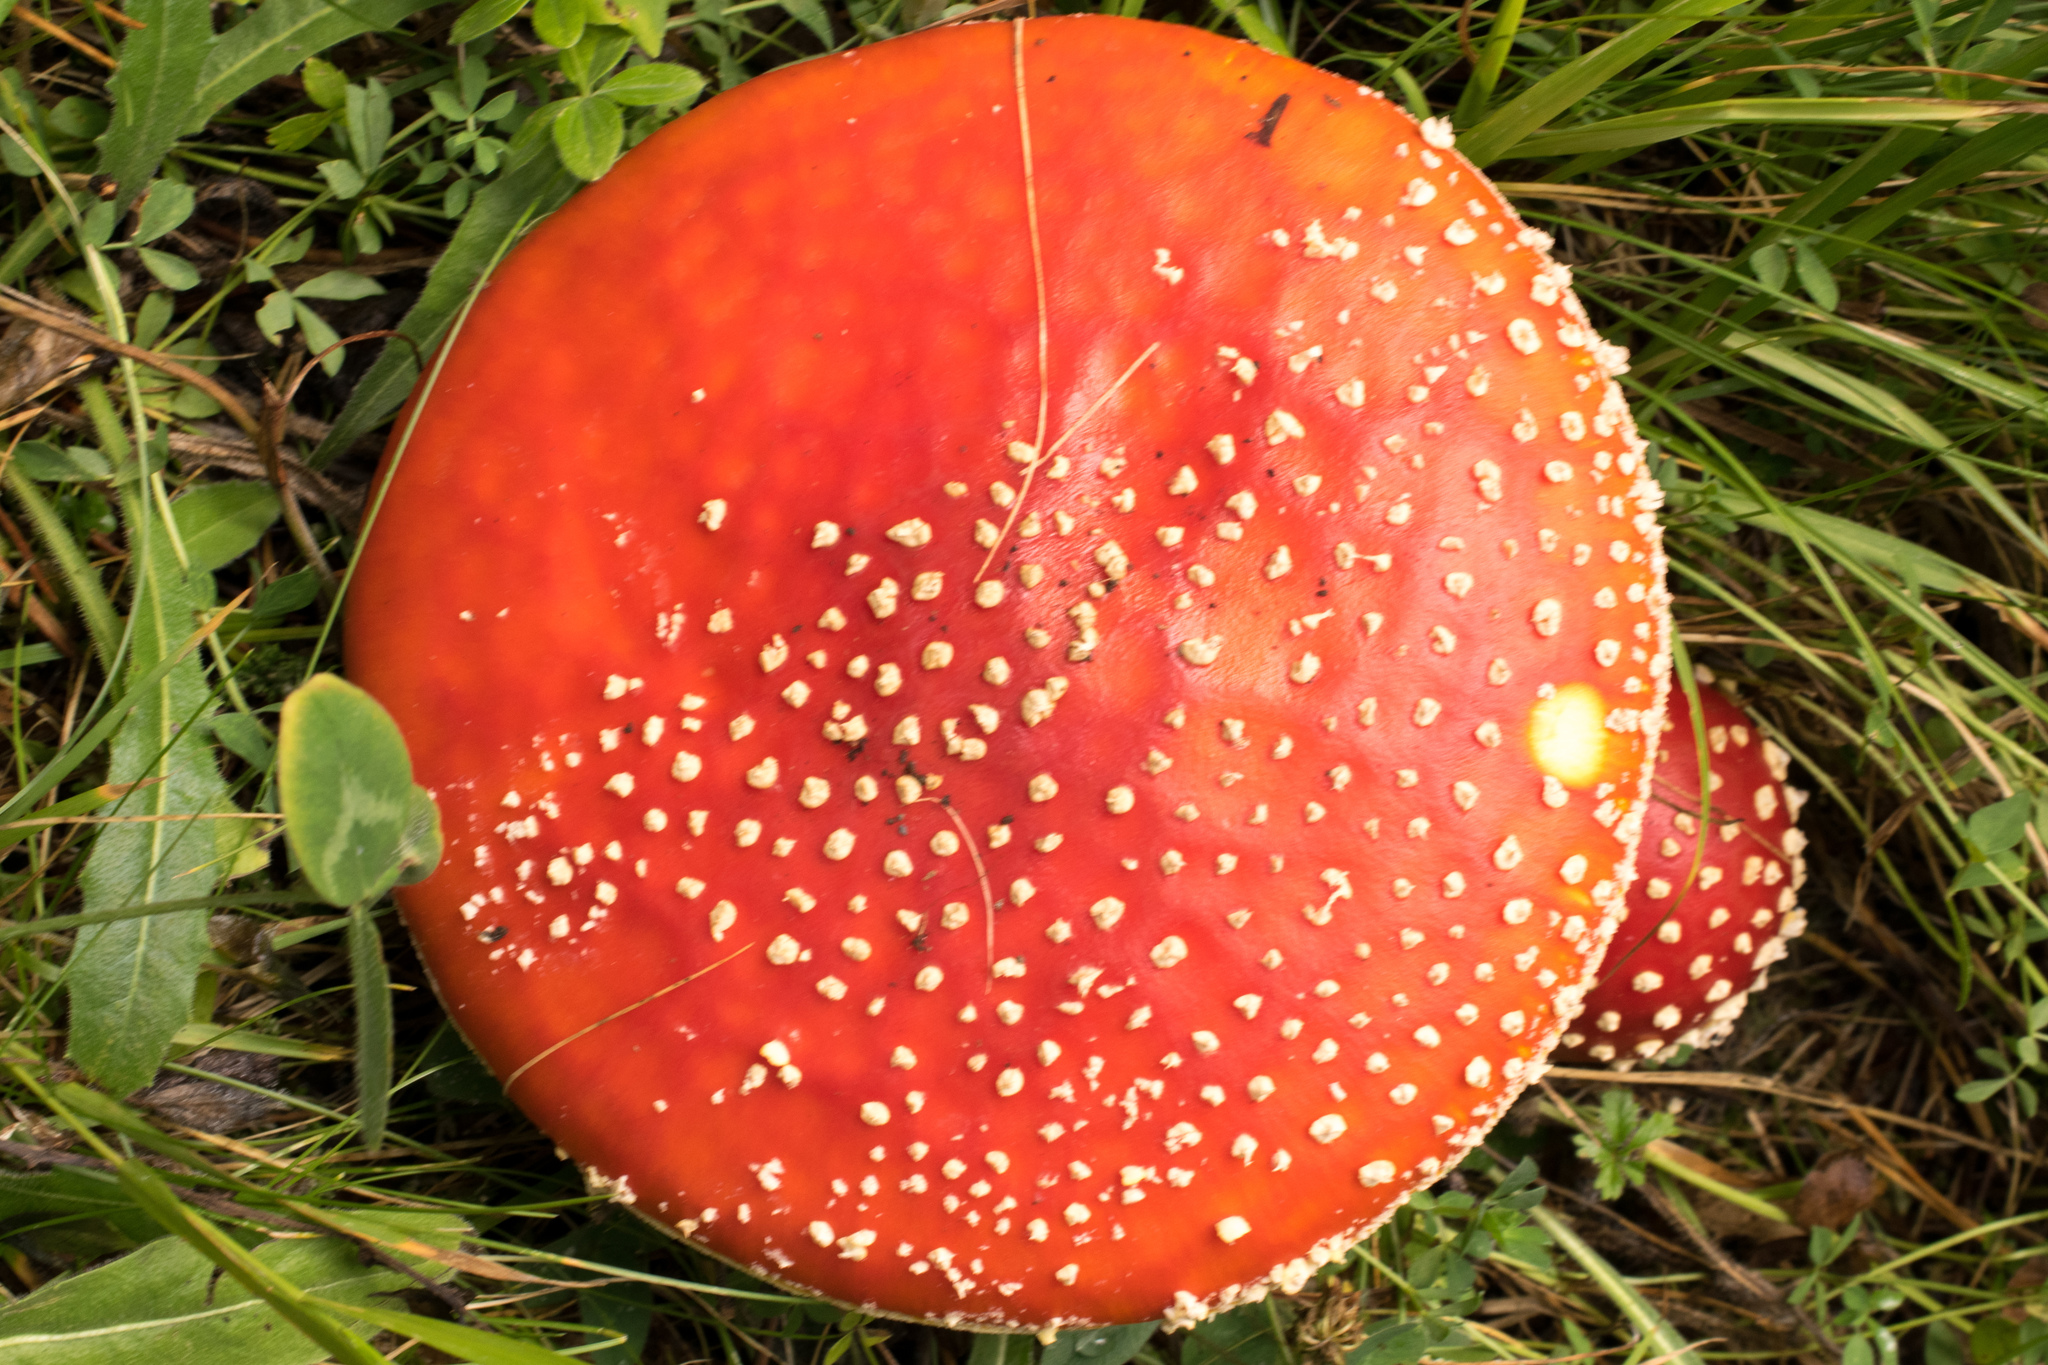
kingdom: Fungi
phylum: Basidiomycota
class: Agaricomycetes
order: Agaricales
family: Amanitaceae
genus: Amanita
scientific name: Amanita muscaria
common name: Fly agaric
